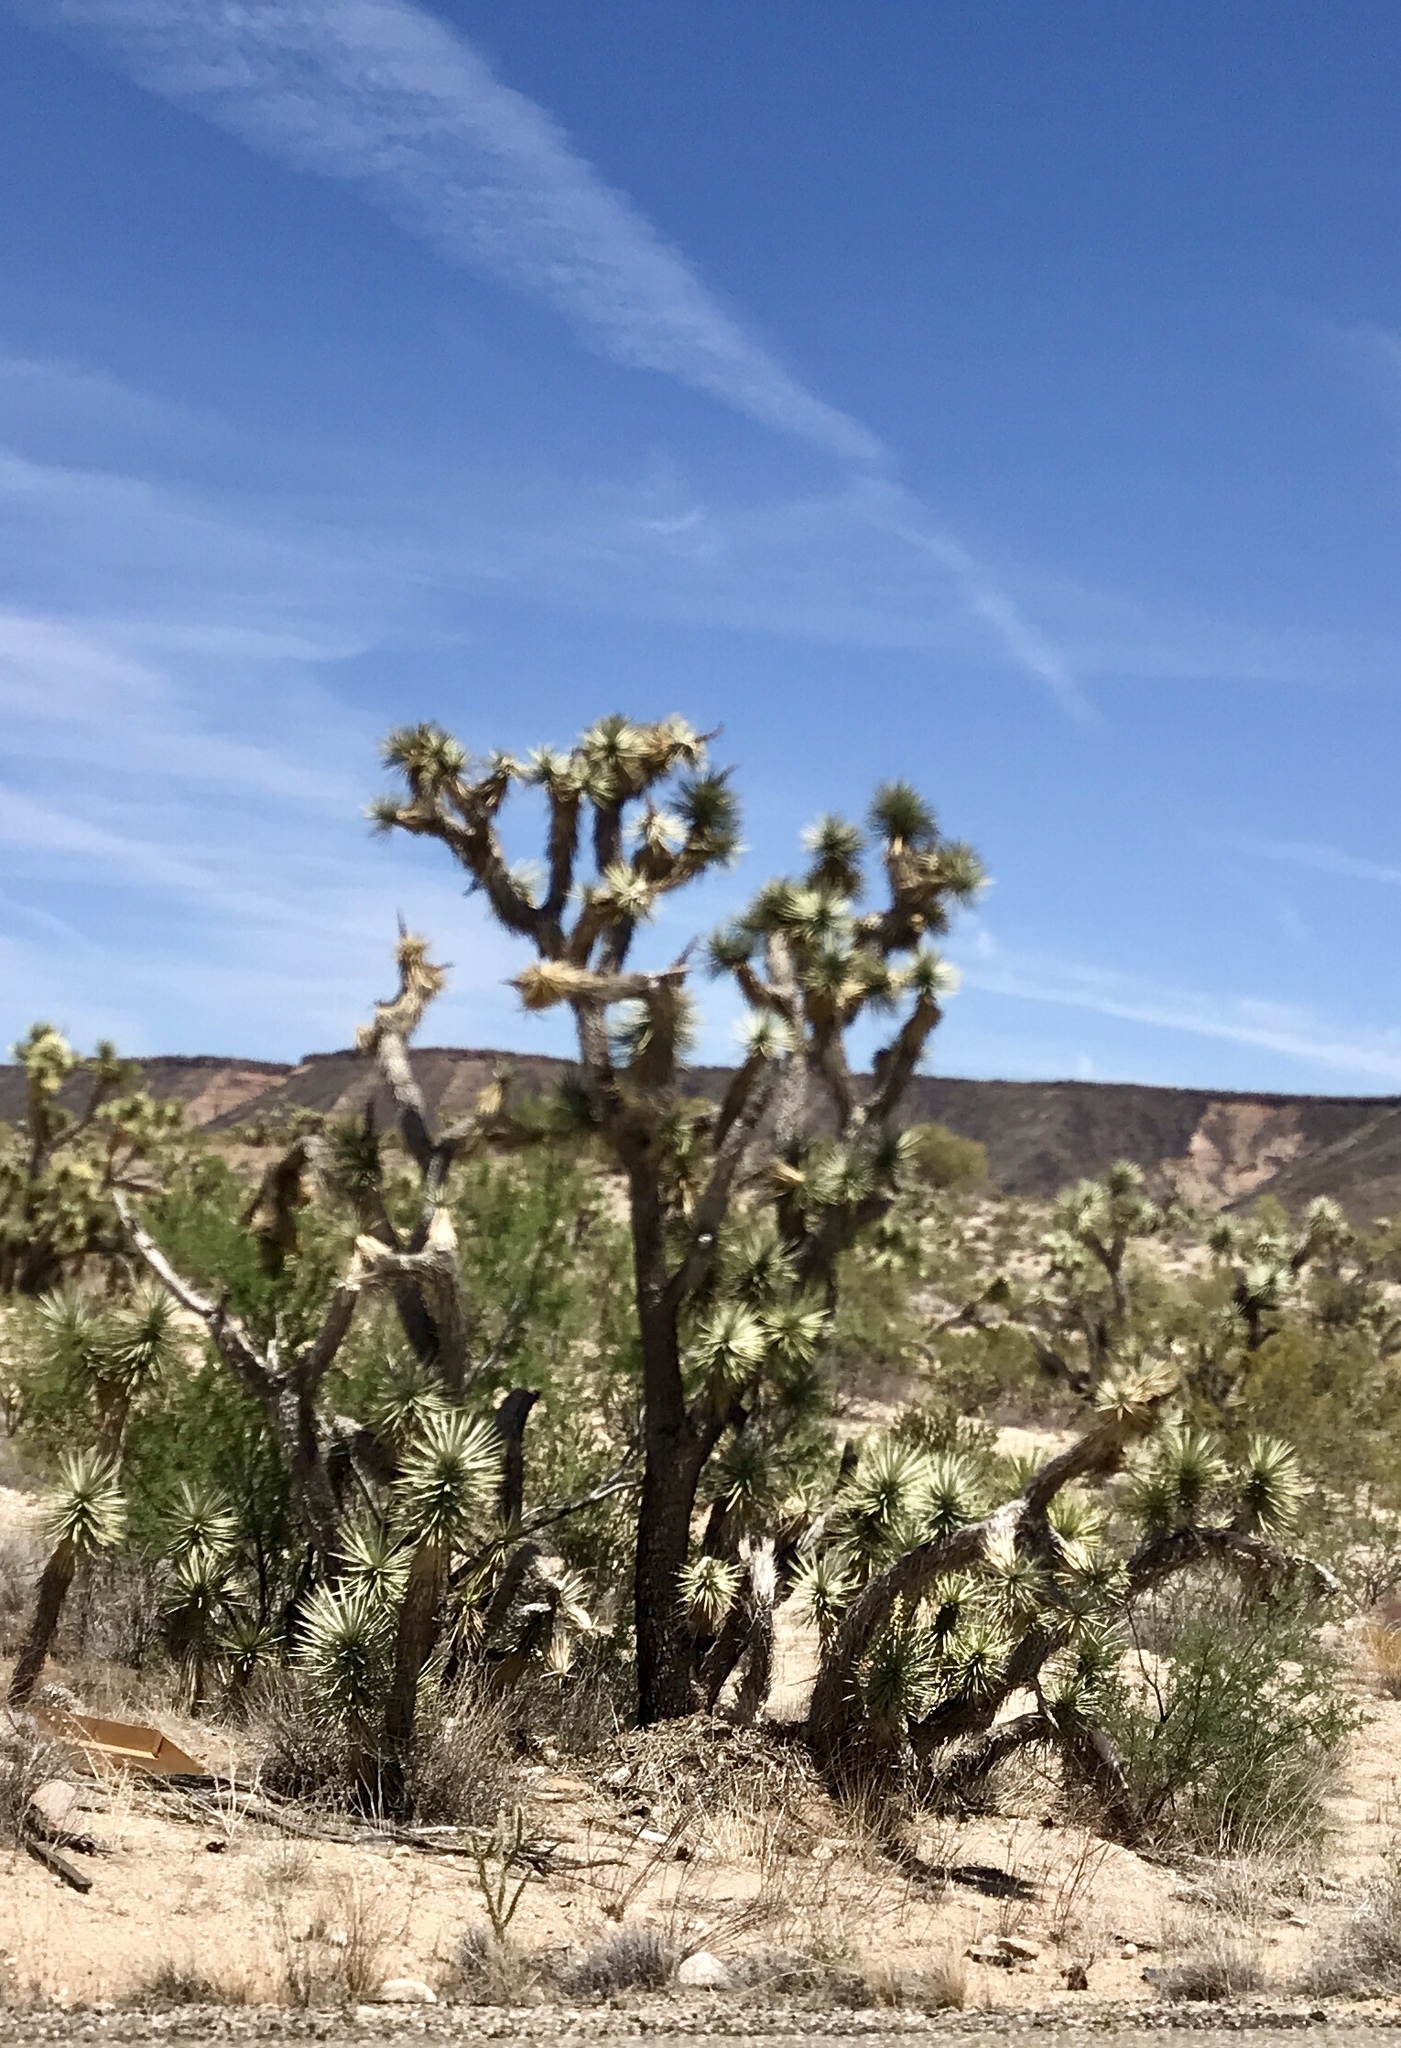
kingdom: Plantae
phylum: Tracheophyta
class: Liliopsida
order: Asparagales
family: Asparagaceae
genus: Yucca
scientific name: Yucca brevifolia
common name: Joshua tree
